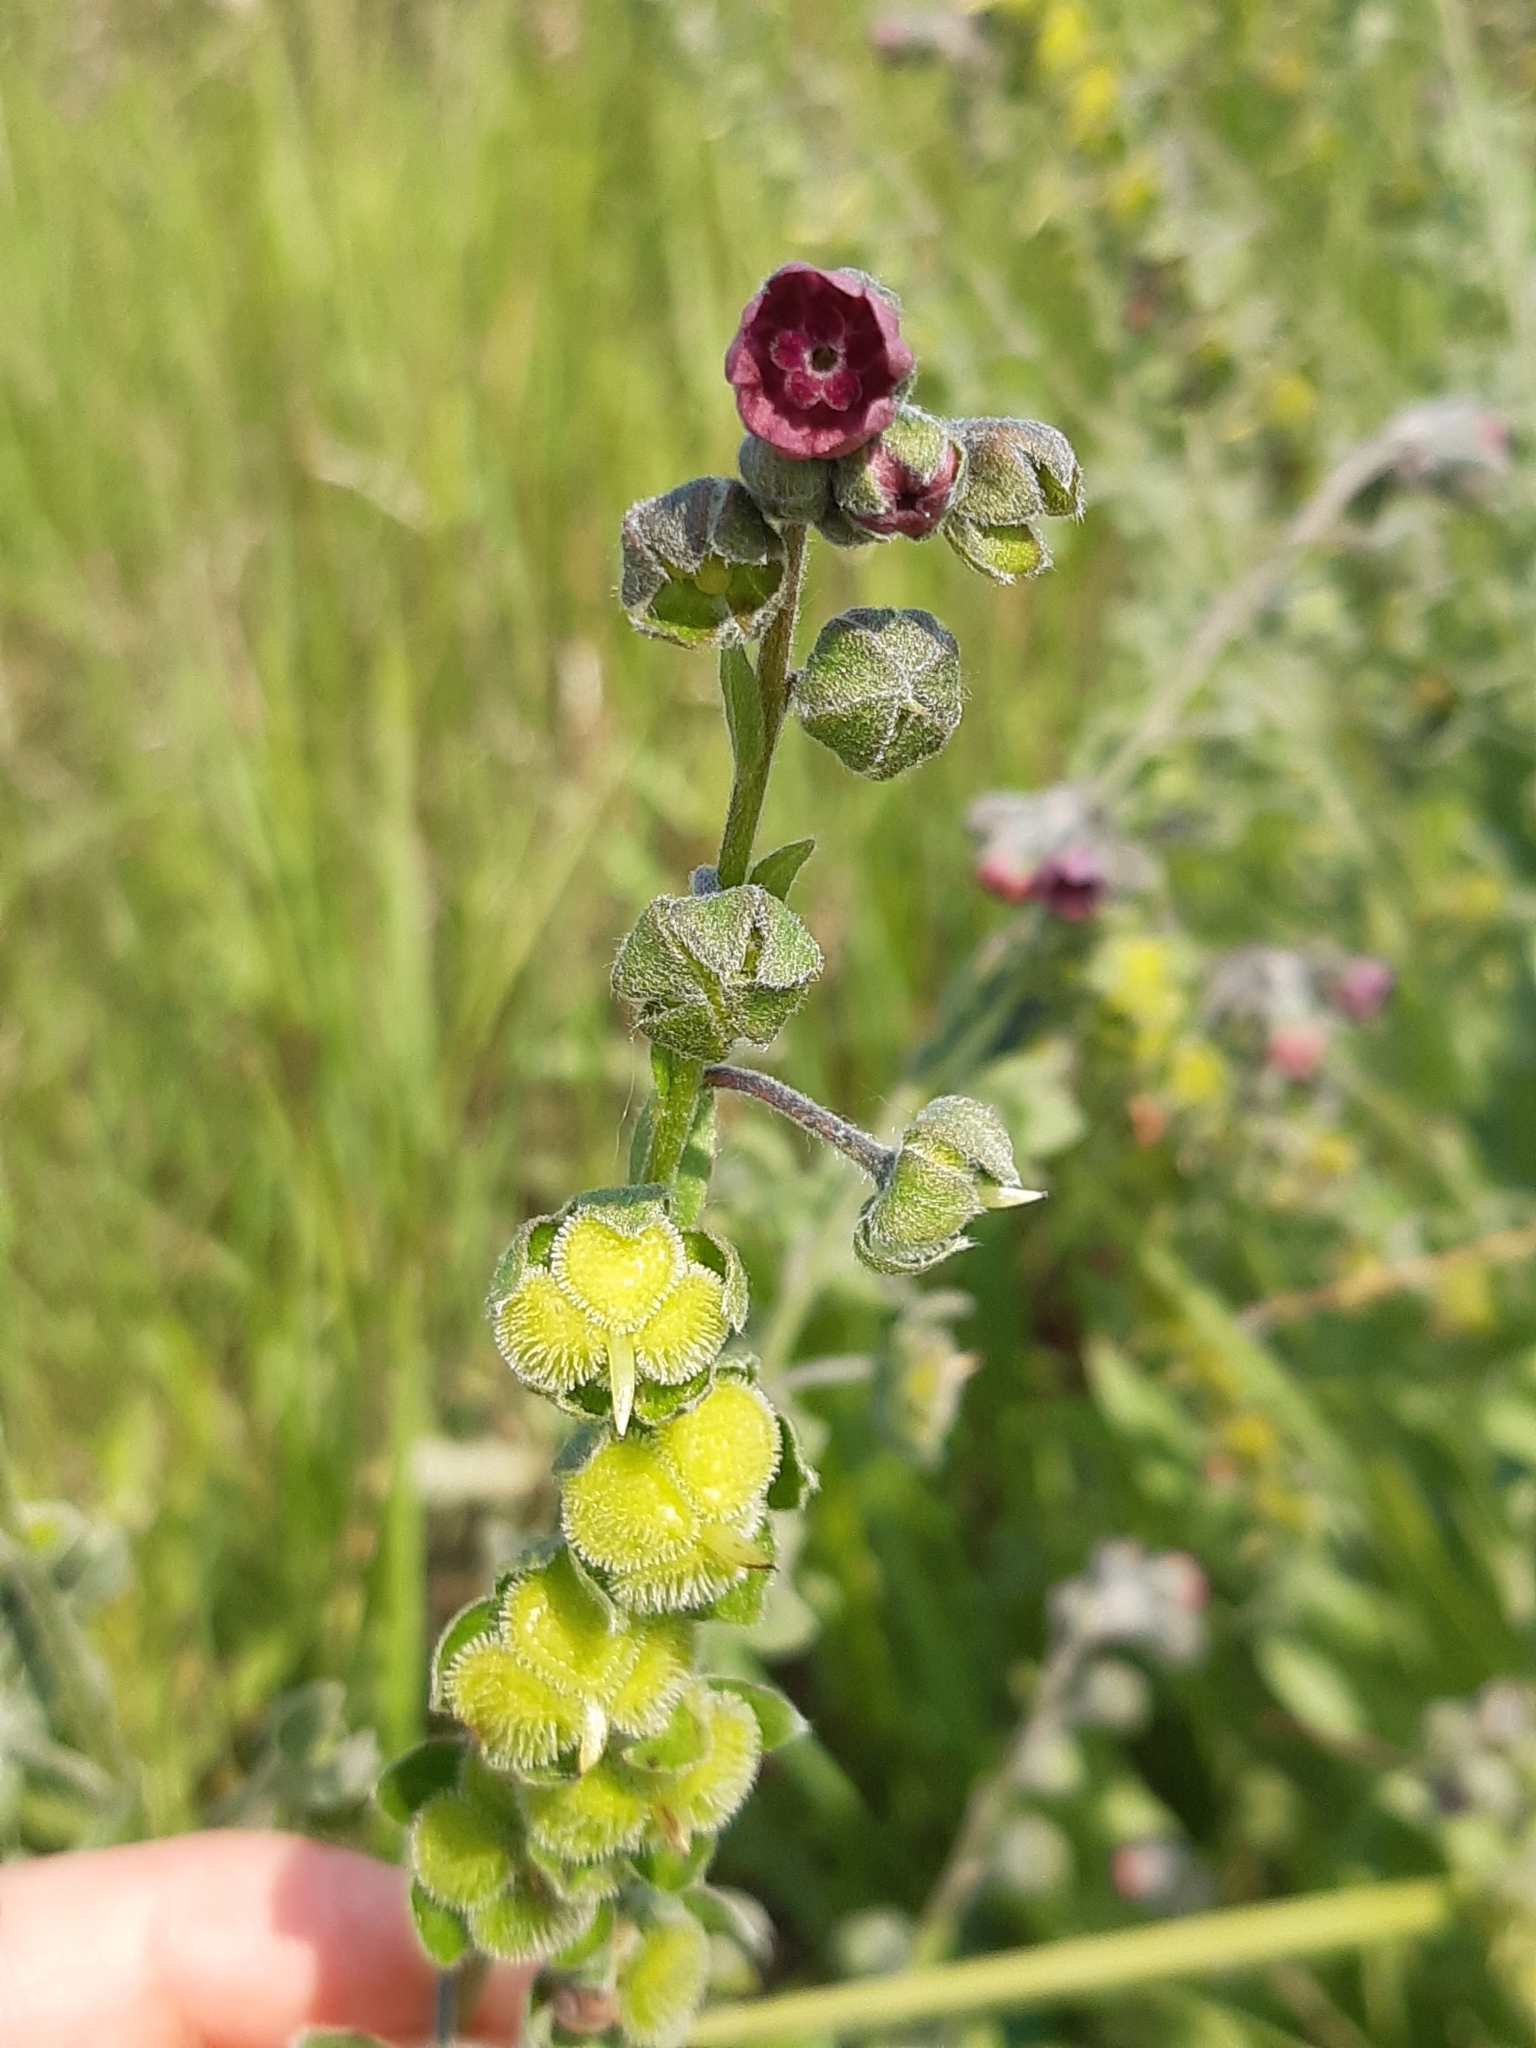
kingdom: Plantae
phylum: Tracheophyta
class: Magnoliopsida
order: Boraginales
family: Boraginaceae
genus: Cynoglossum
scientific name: Cynoglossum officinale
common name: Hound's-tongue
